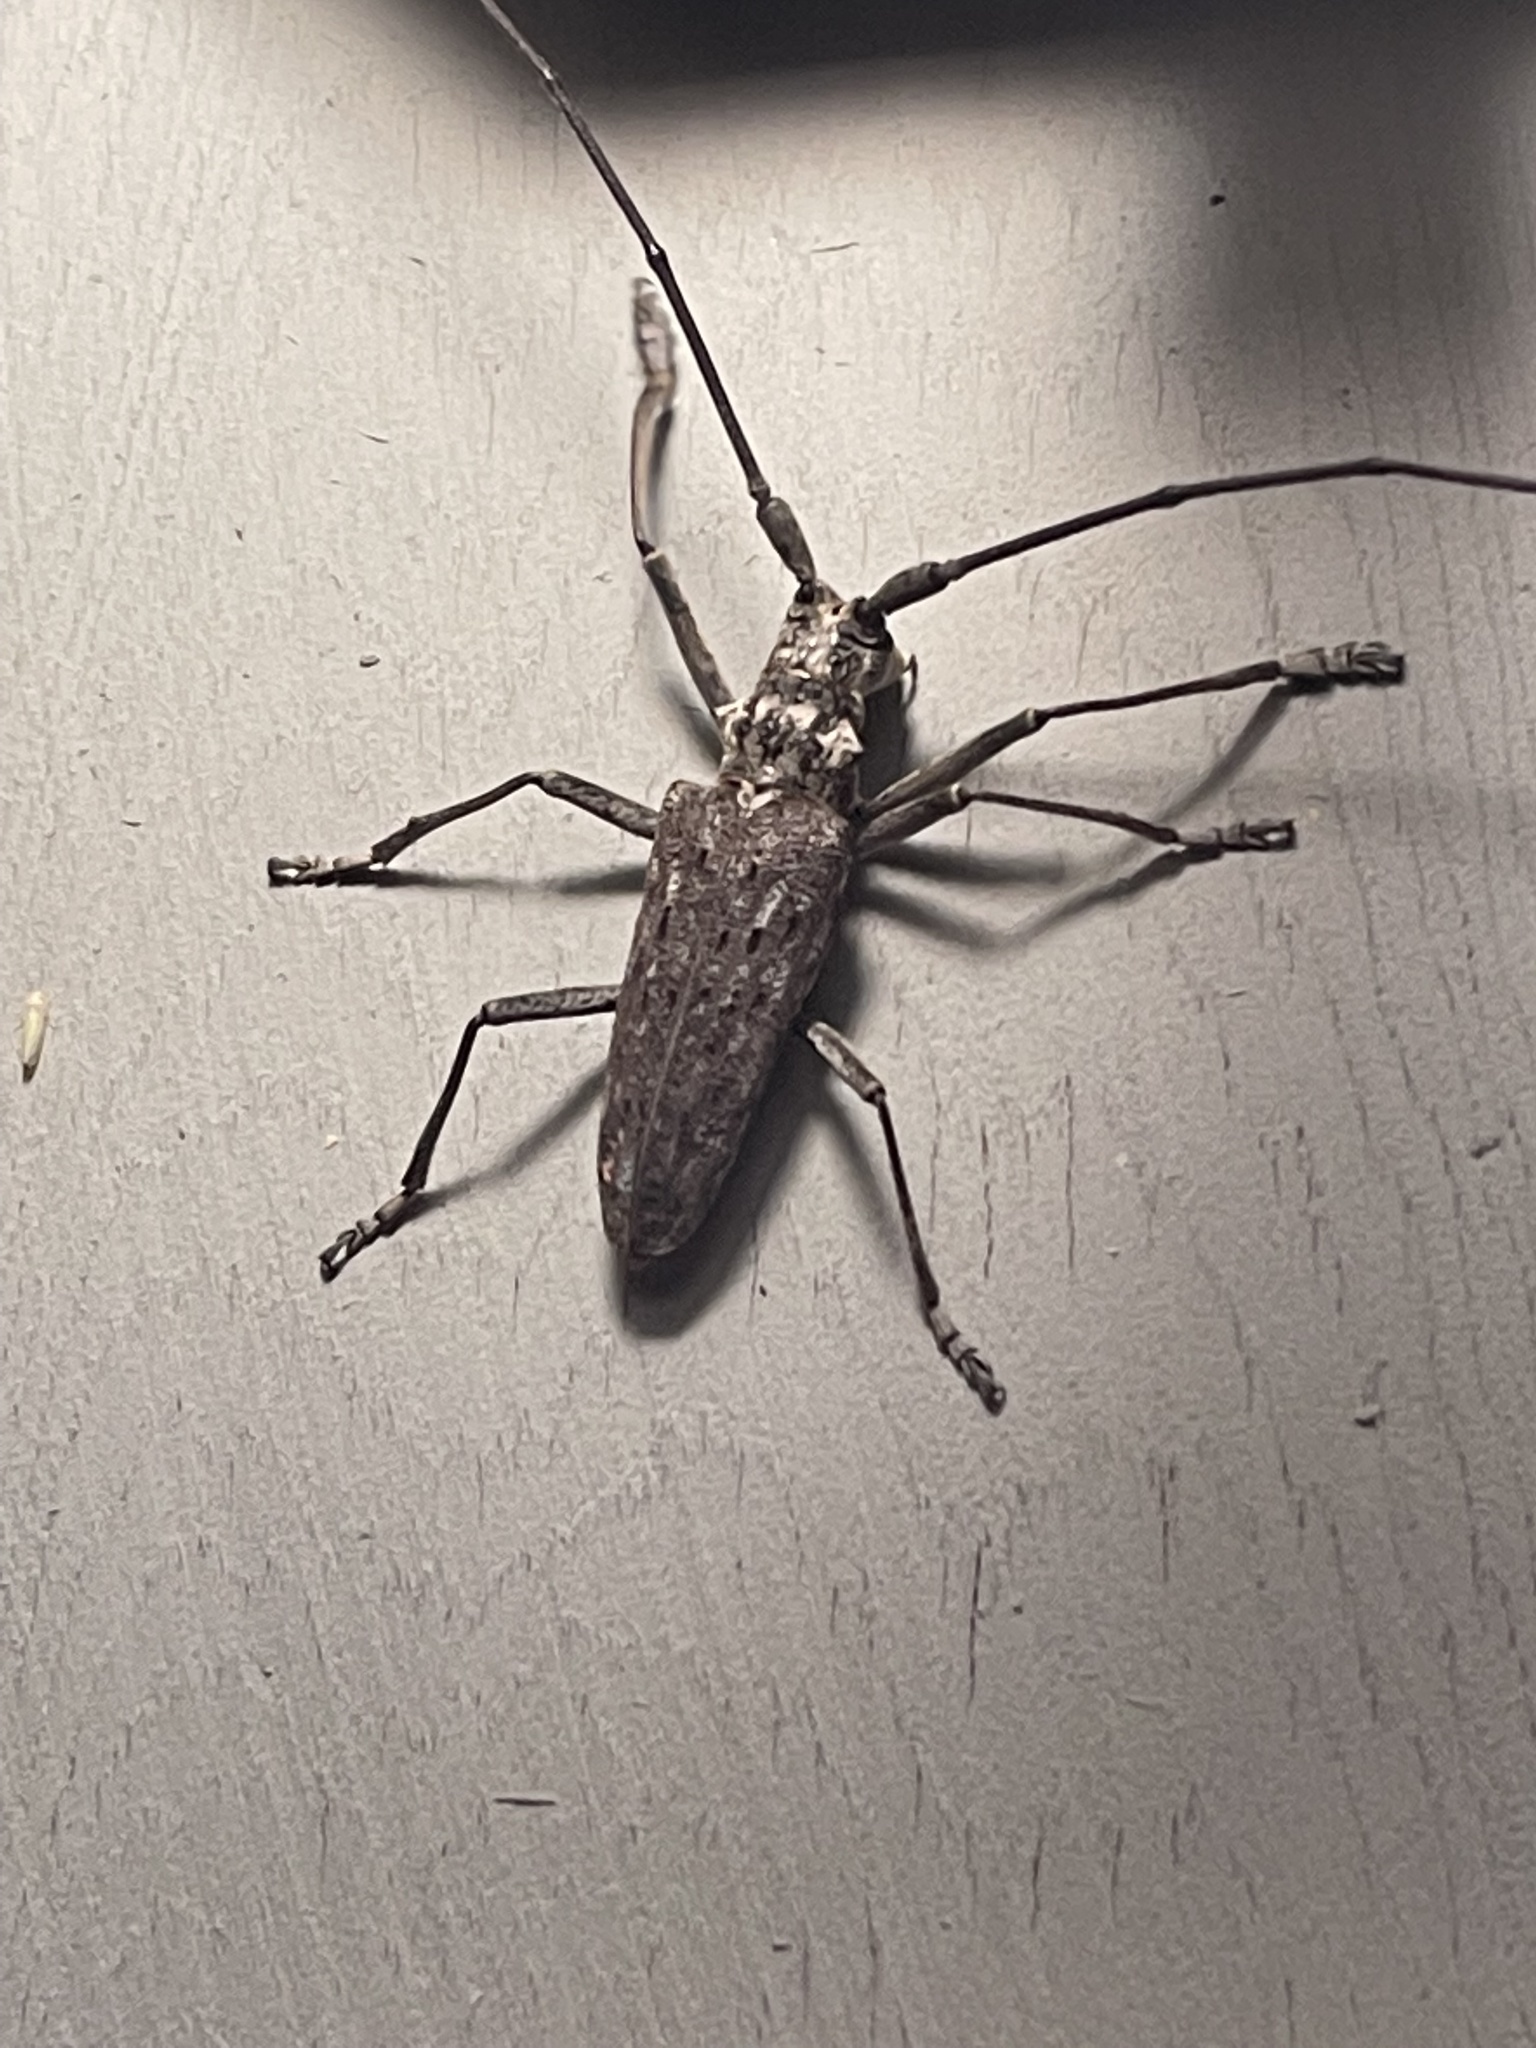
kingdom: Animalia
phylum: Arthropoda
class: Insecta
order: Coleoptera
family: Cerambycidae
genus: Monochamus
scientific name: Monochamus notatus
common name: Northeastern pine sawyer beetle
